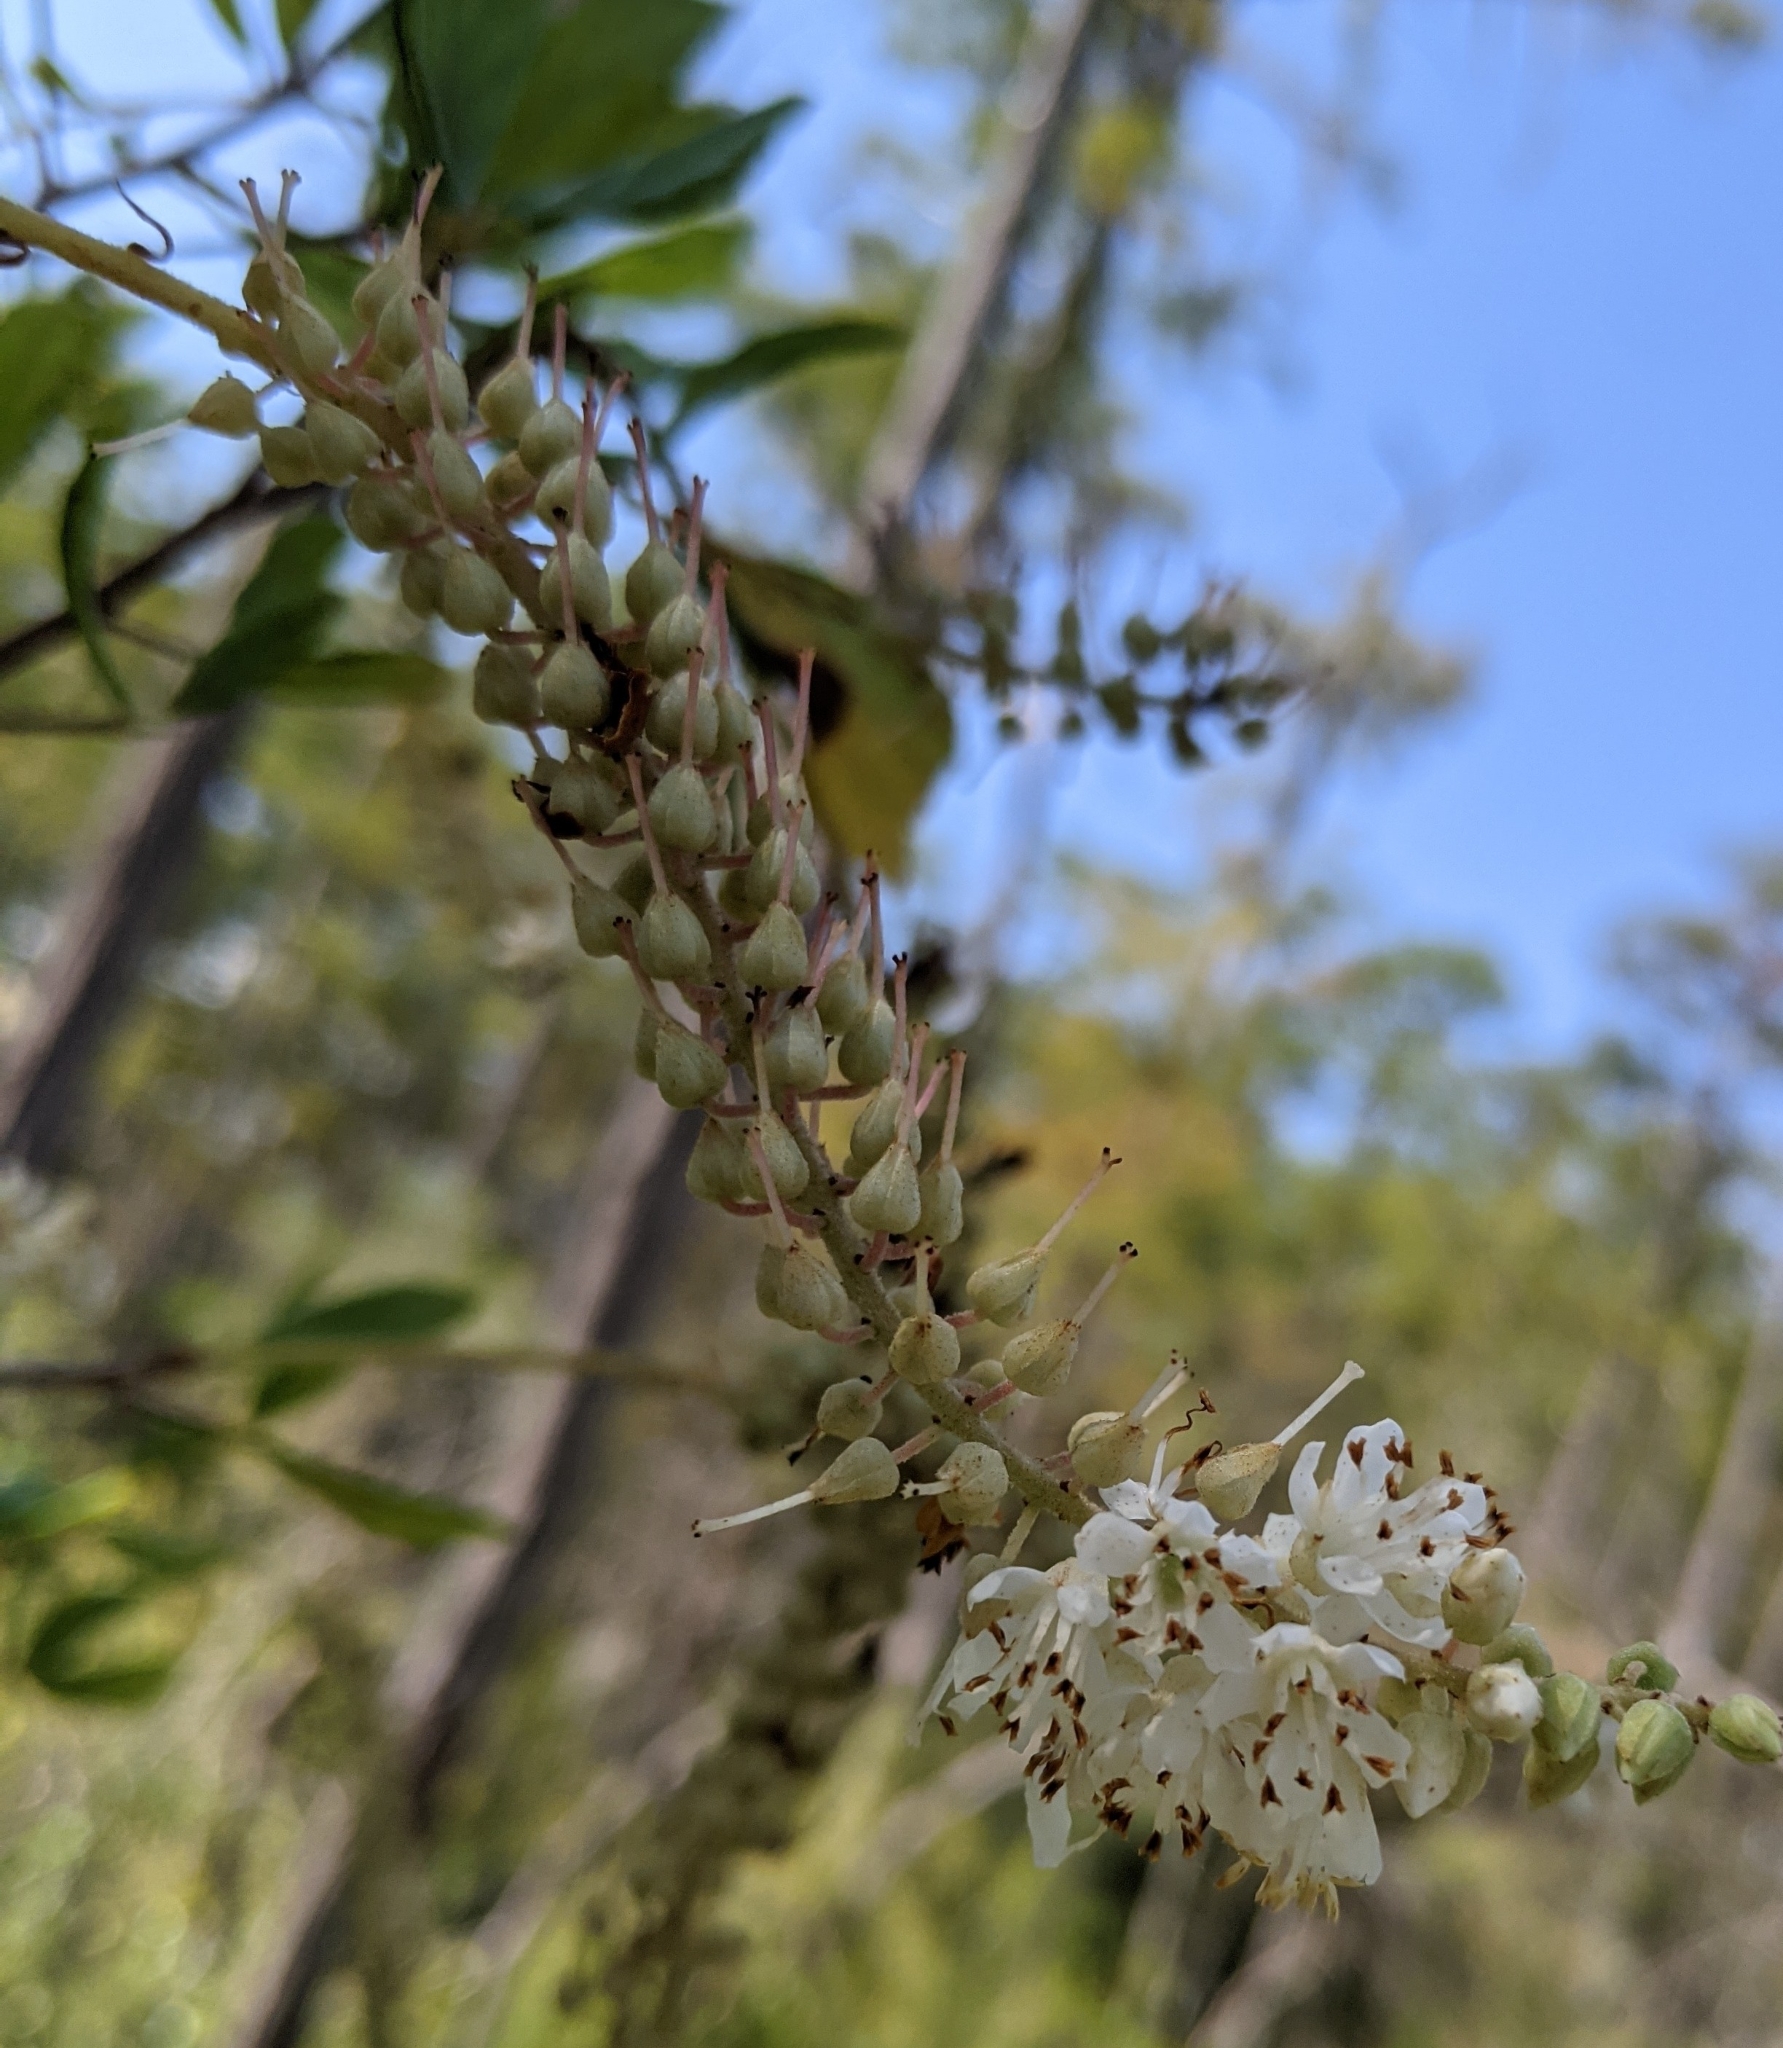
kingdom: Plantae
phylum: Tracheophyta
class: Magnoliopsida
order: Ericales
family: Clethraceae
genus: Clethra
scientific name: Clethra alnifolia
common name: Sweet pepperbush
